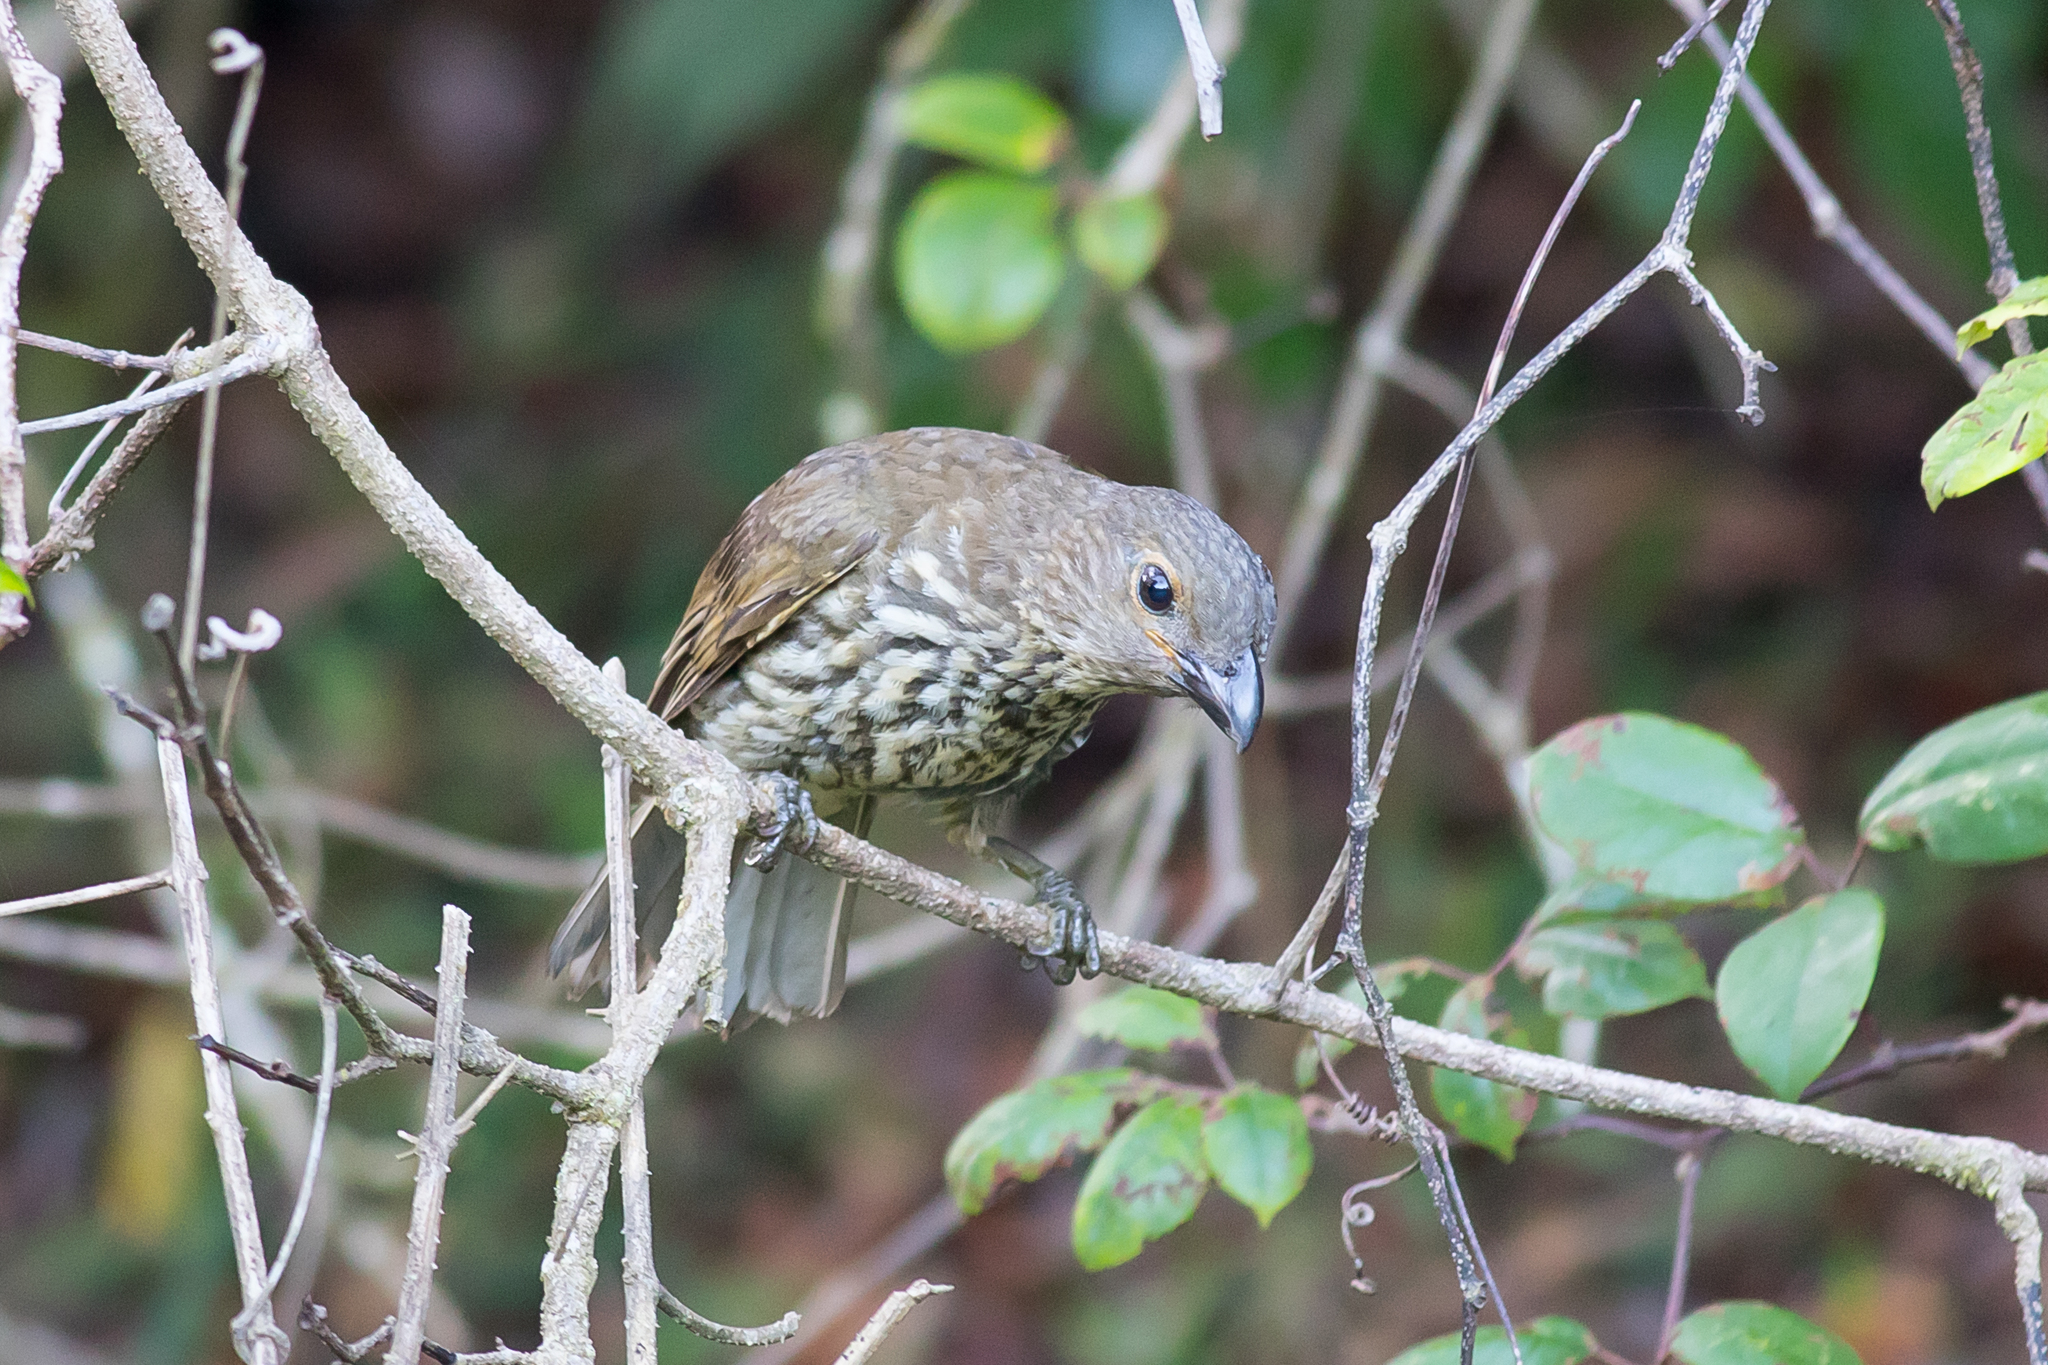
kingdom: Animalia
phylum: Chordata
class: Aves
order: Passeriformes
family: Ptilonorhynchidae
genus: Scenopoeetes
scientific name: Scenopoeetes dentirostris
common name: Tooth-billed bowerbird
